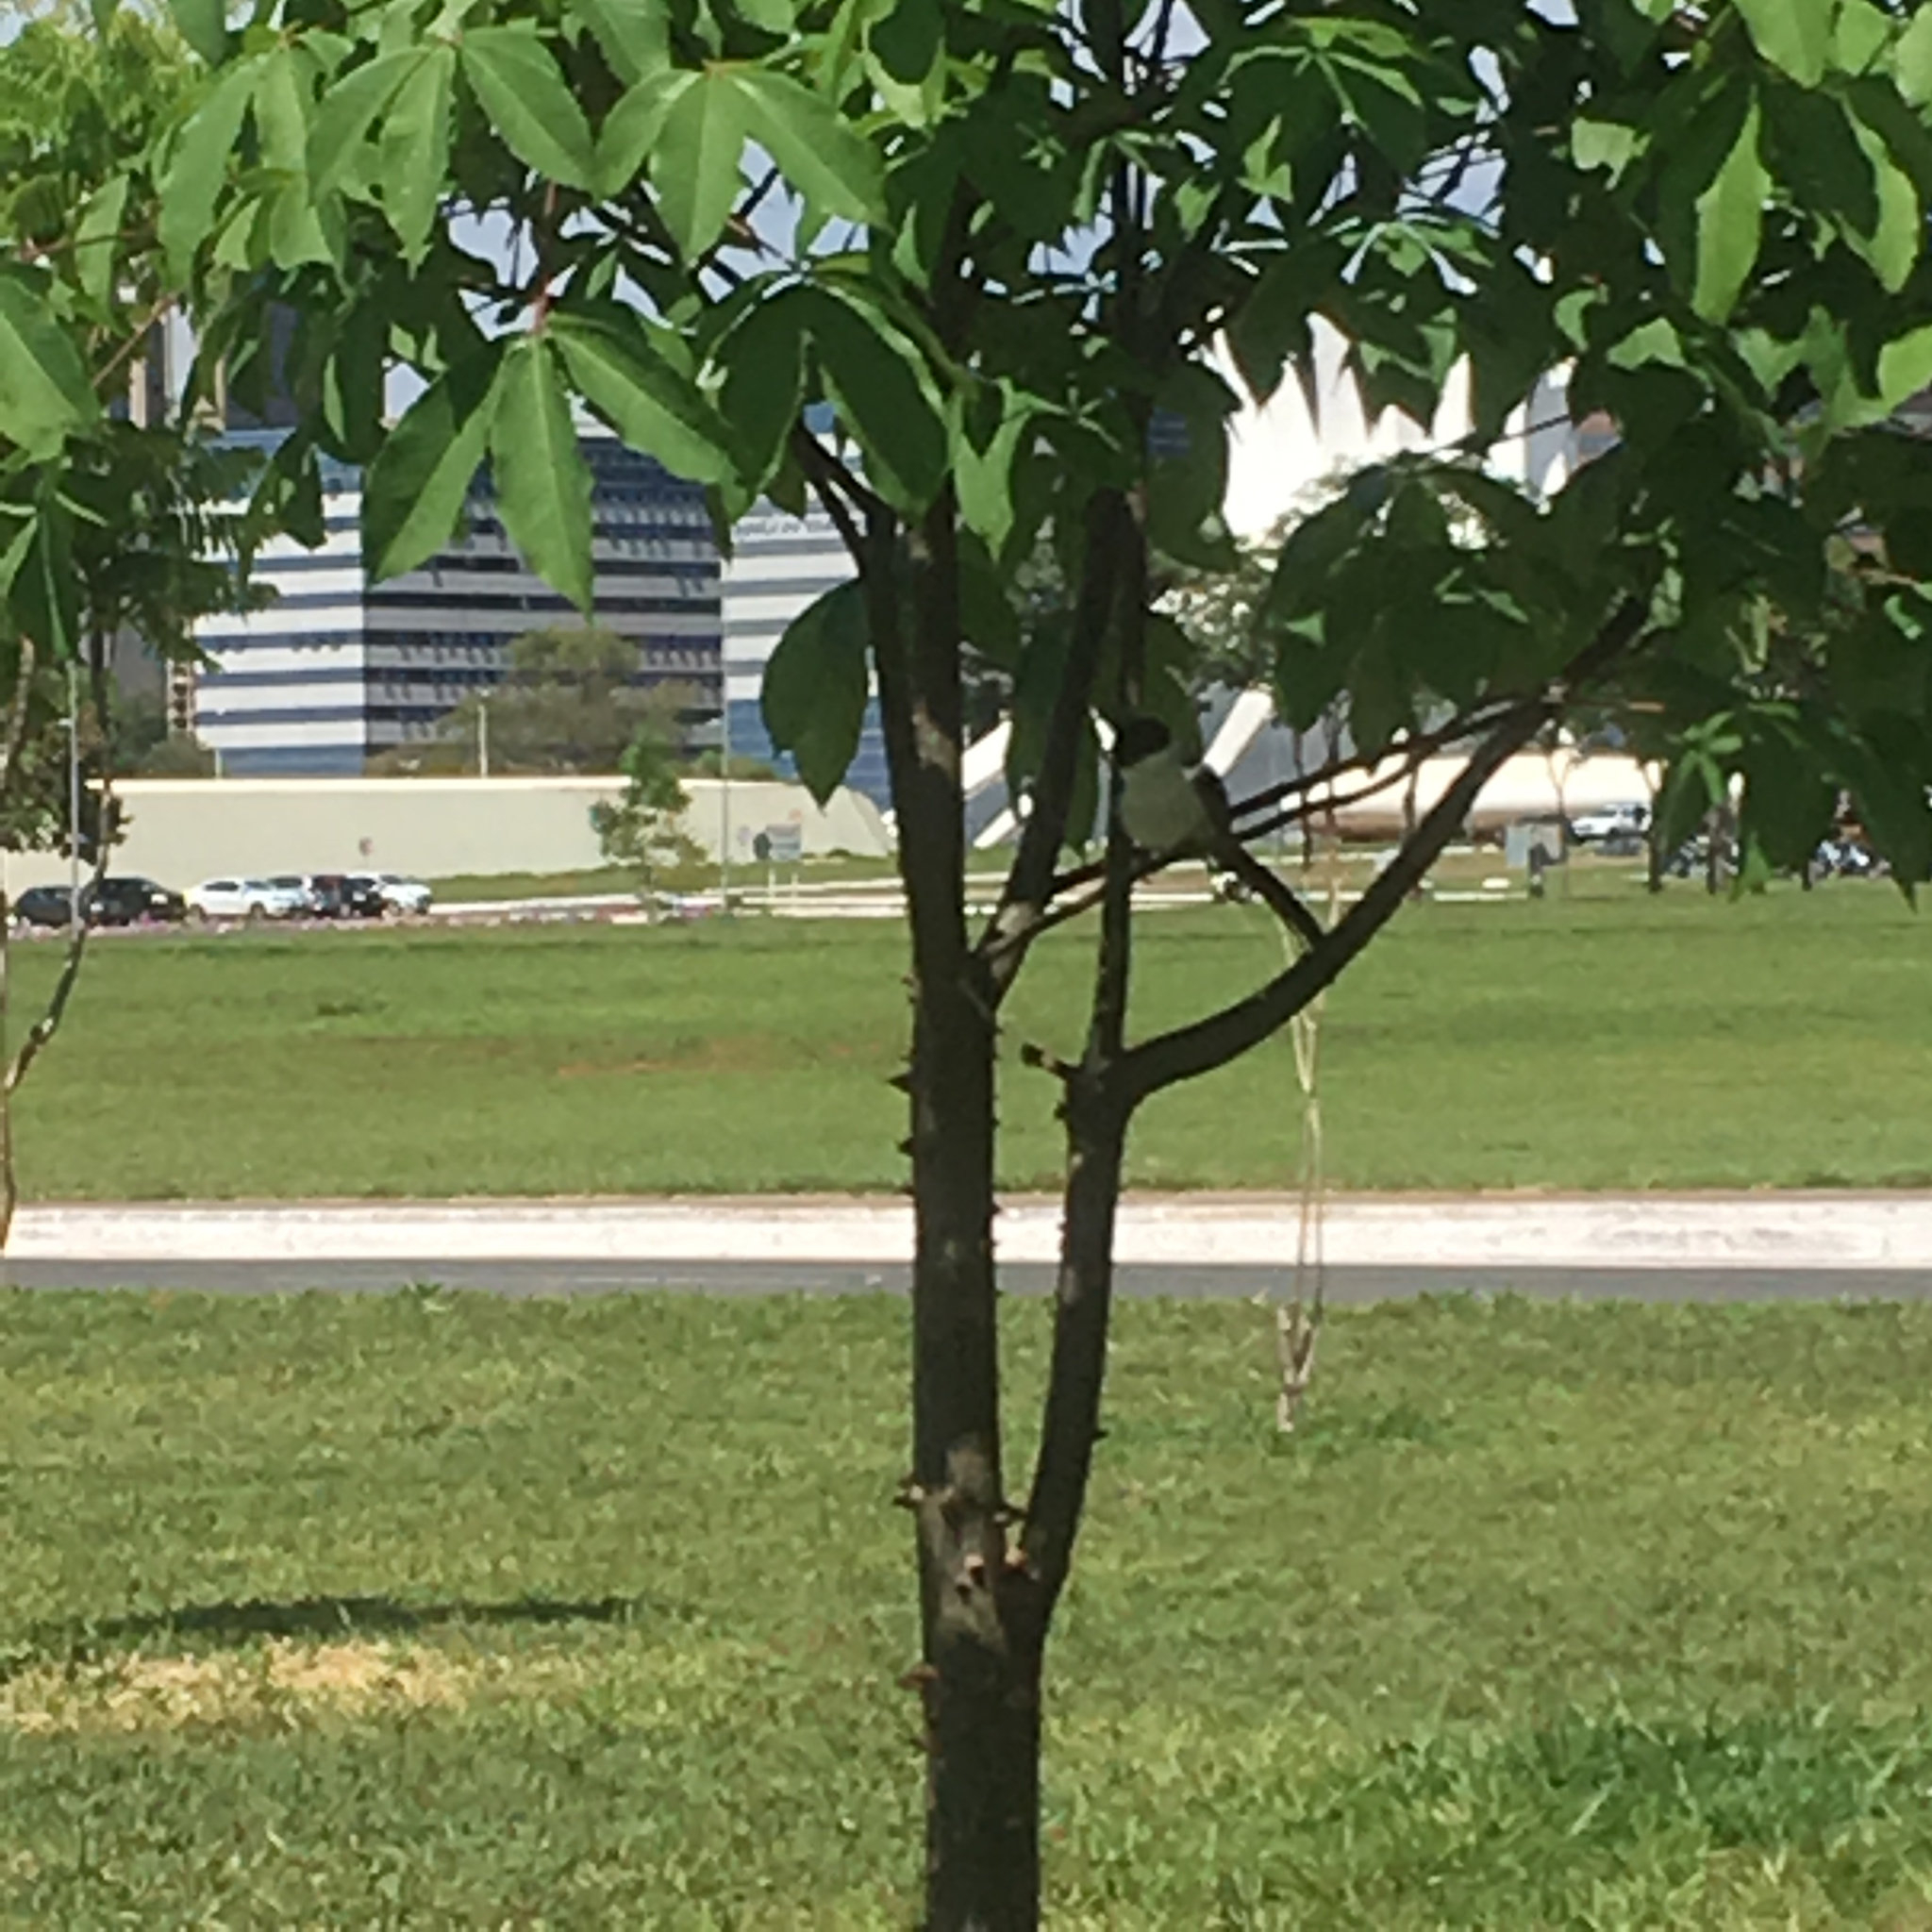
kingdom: Animalia
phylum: Chordata
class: Aves
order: Passeriformes
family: Tyrannidae
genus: Tyrannus
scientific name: Tyrannus savana
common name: Fork-tailed flycatcher
